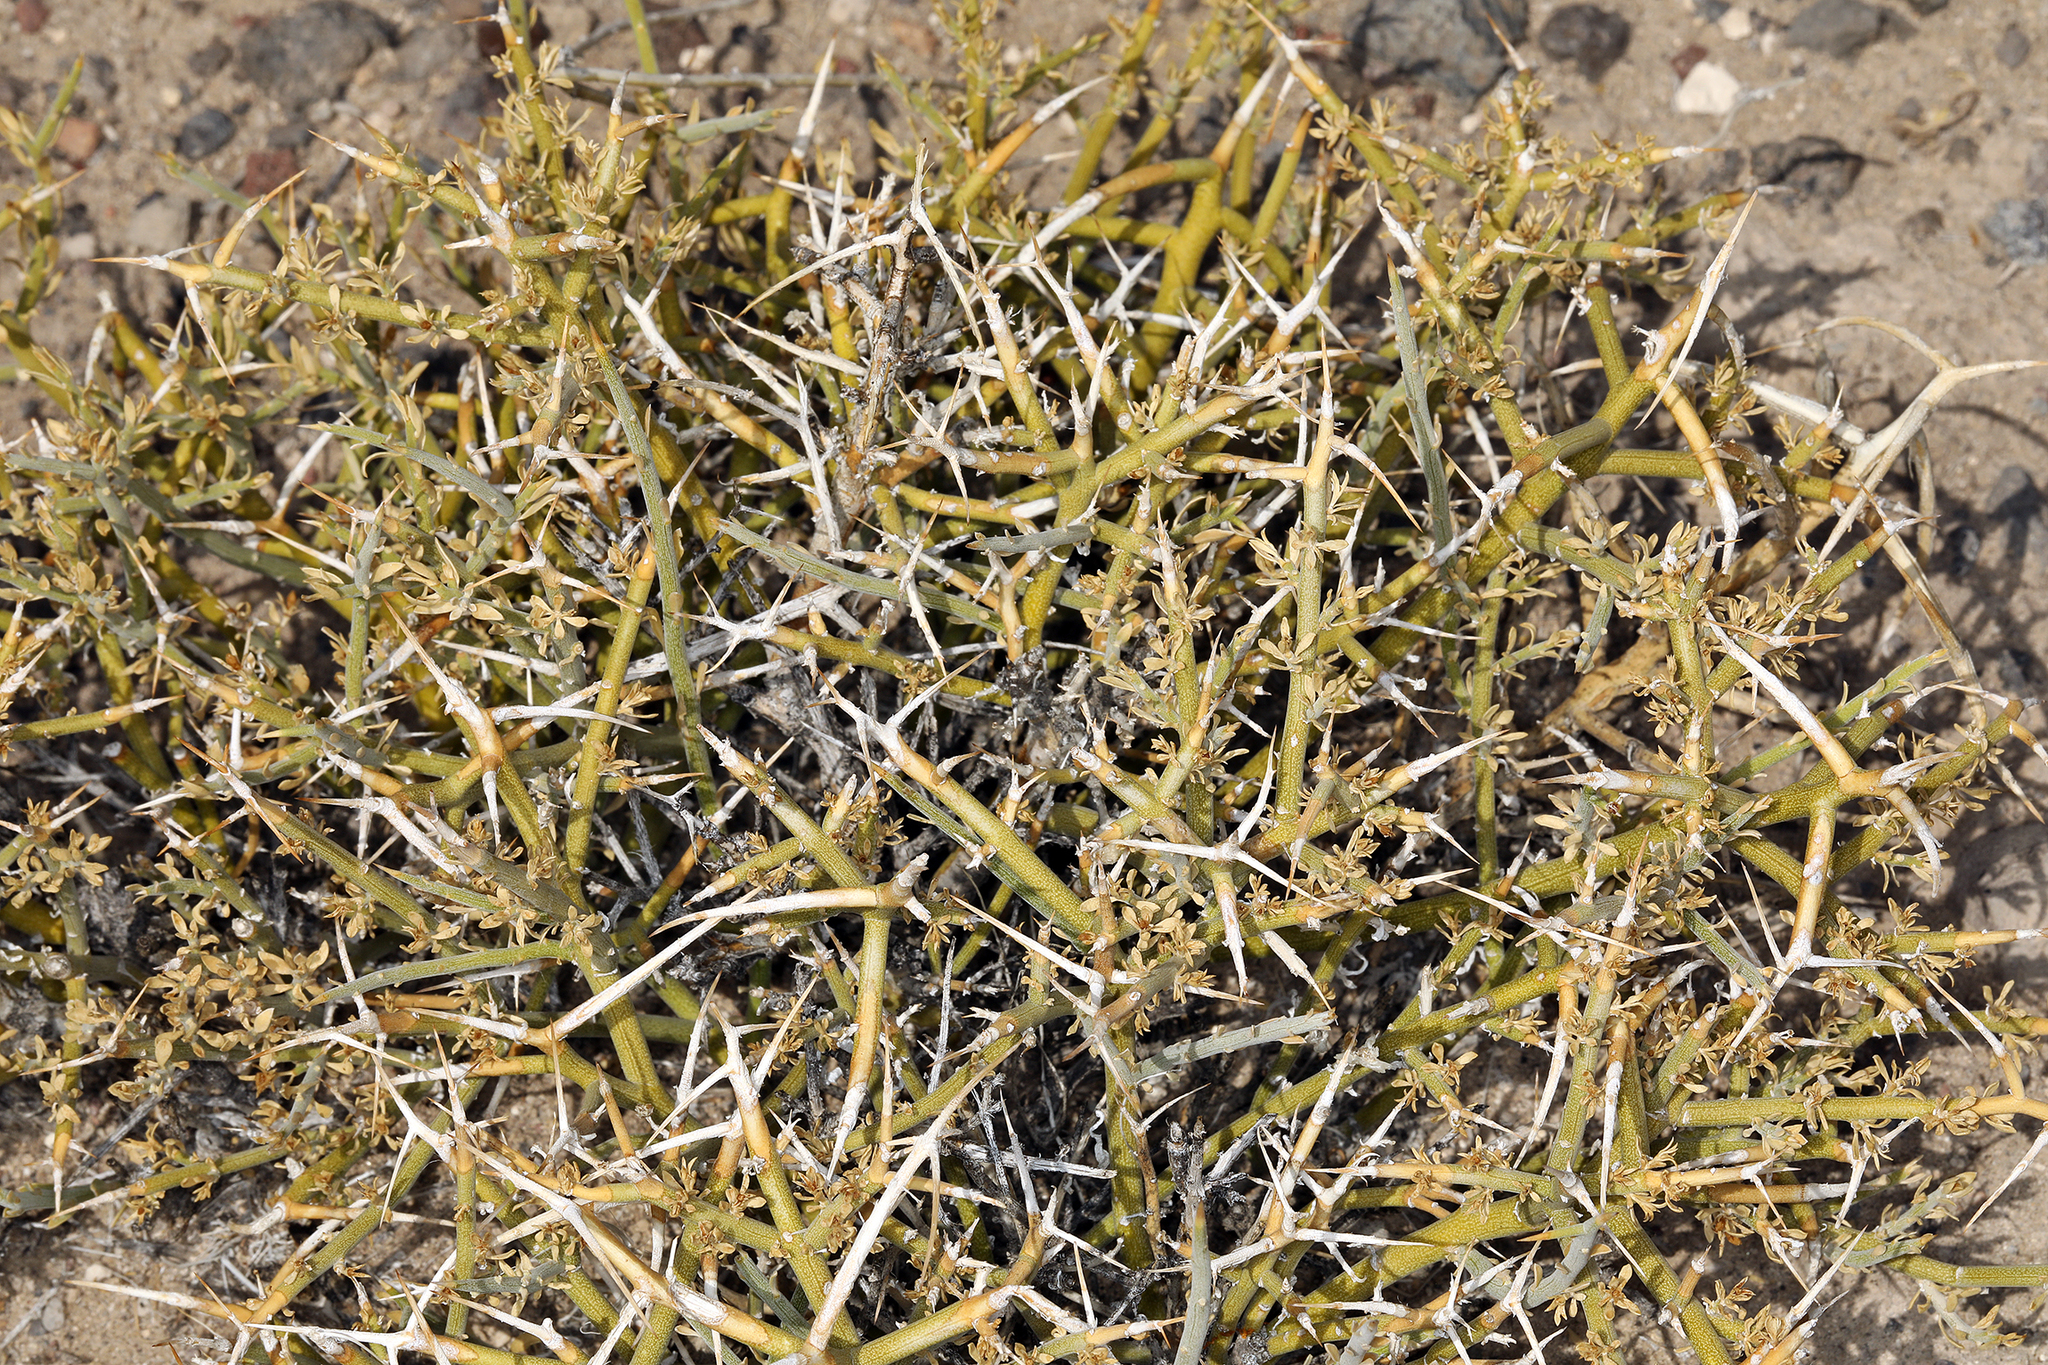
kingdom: Plantae
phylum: Tracheophyta
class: Magnoliopsida
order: Lamiales
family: Oleaceae
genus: Menodora
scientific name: Menodora spinescens
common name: Spiny menodora
